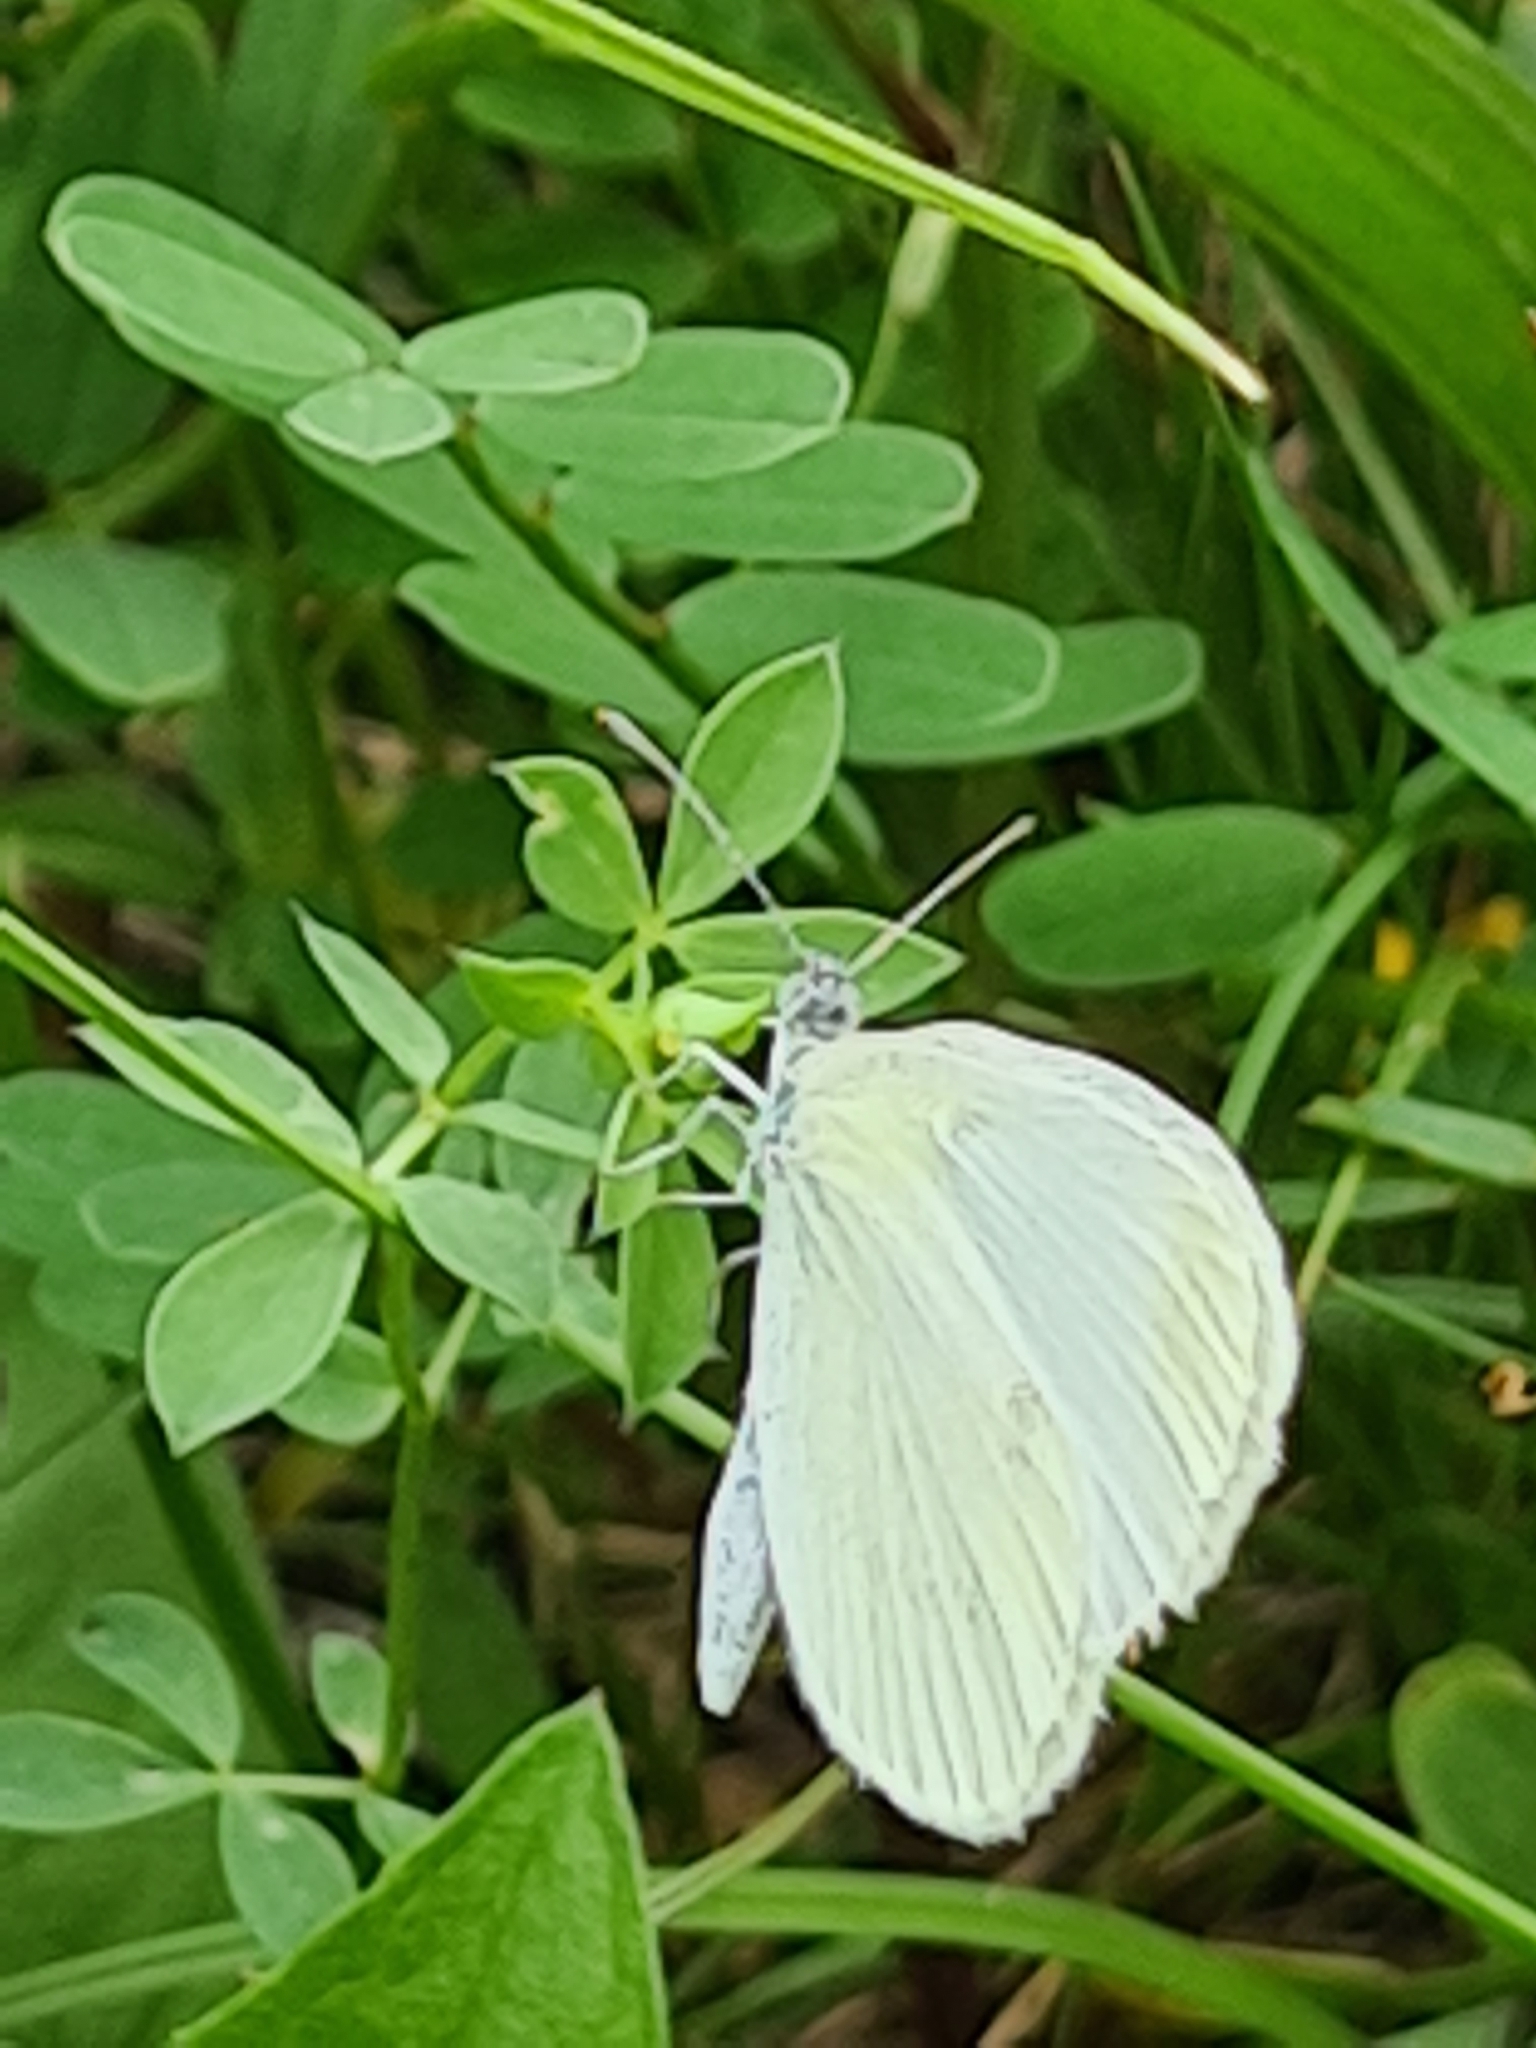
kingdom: Animalia
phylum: Arthropoda
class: Insecta
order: Lepidoptera
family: Pieridae
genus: Leptidea
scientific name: Leptidea
